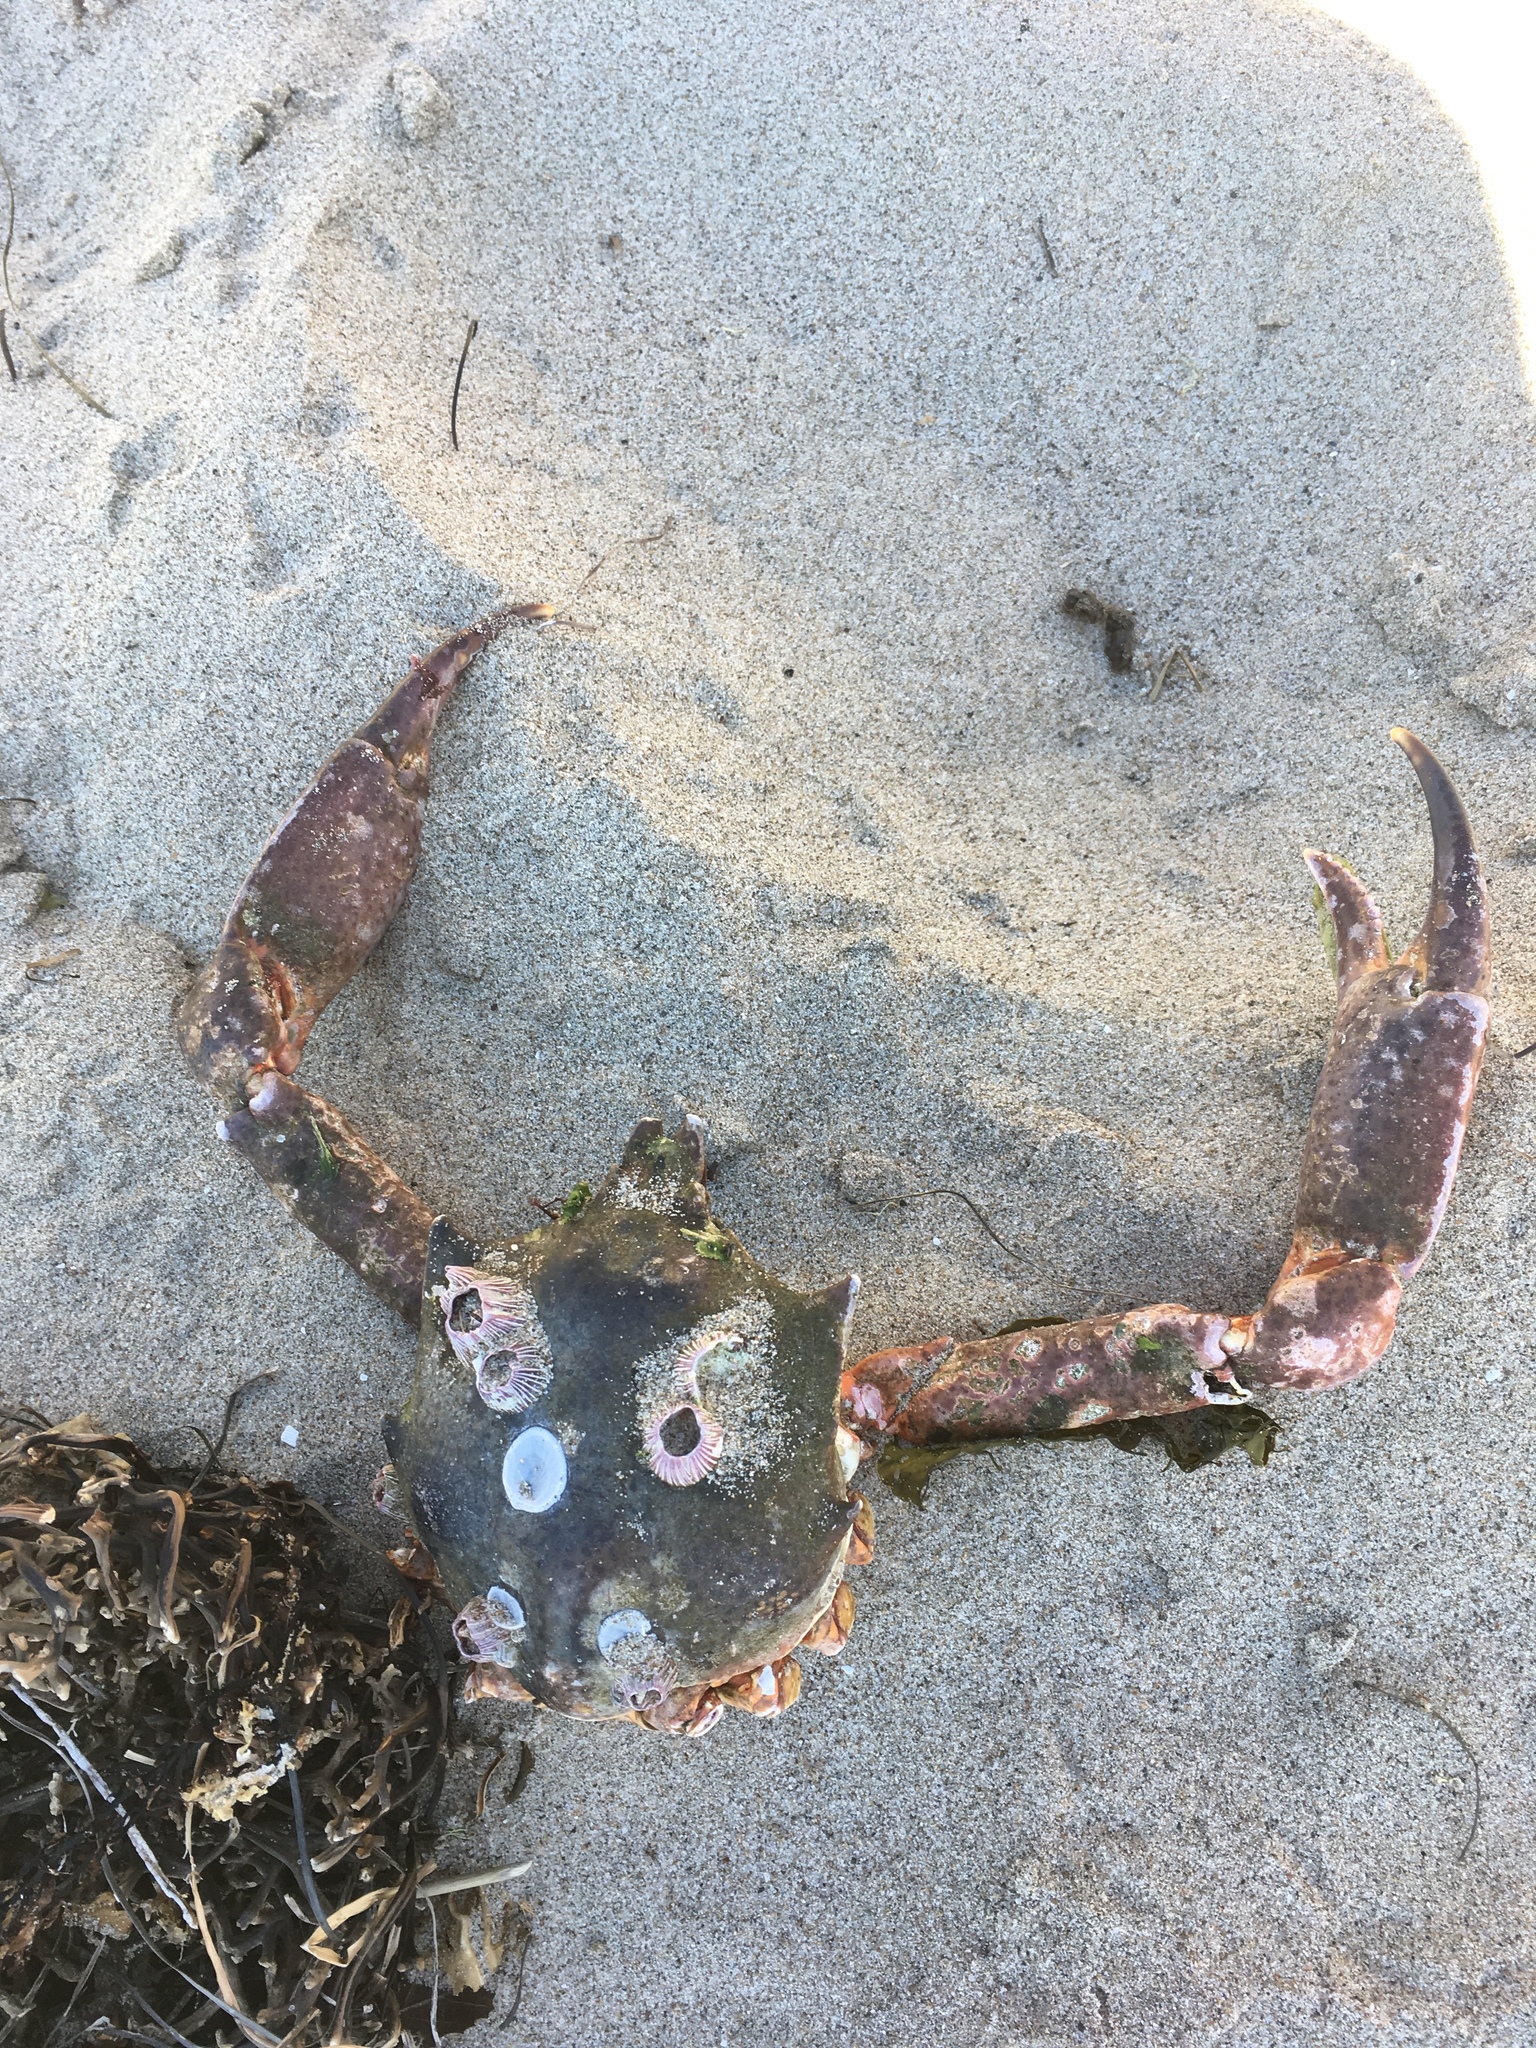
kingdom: Animalia
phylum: Arthropoda
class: Malacostraca
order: Decapoda
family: Epialtidae
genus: Pugettia
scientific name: Pugettia producta
